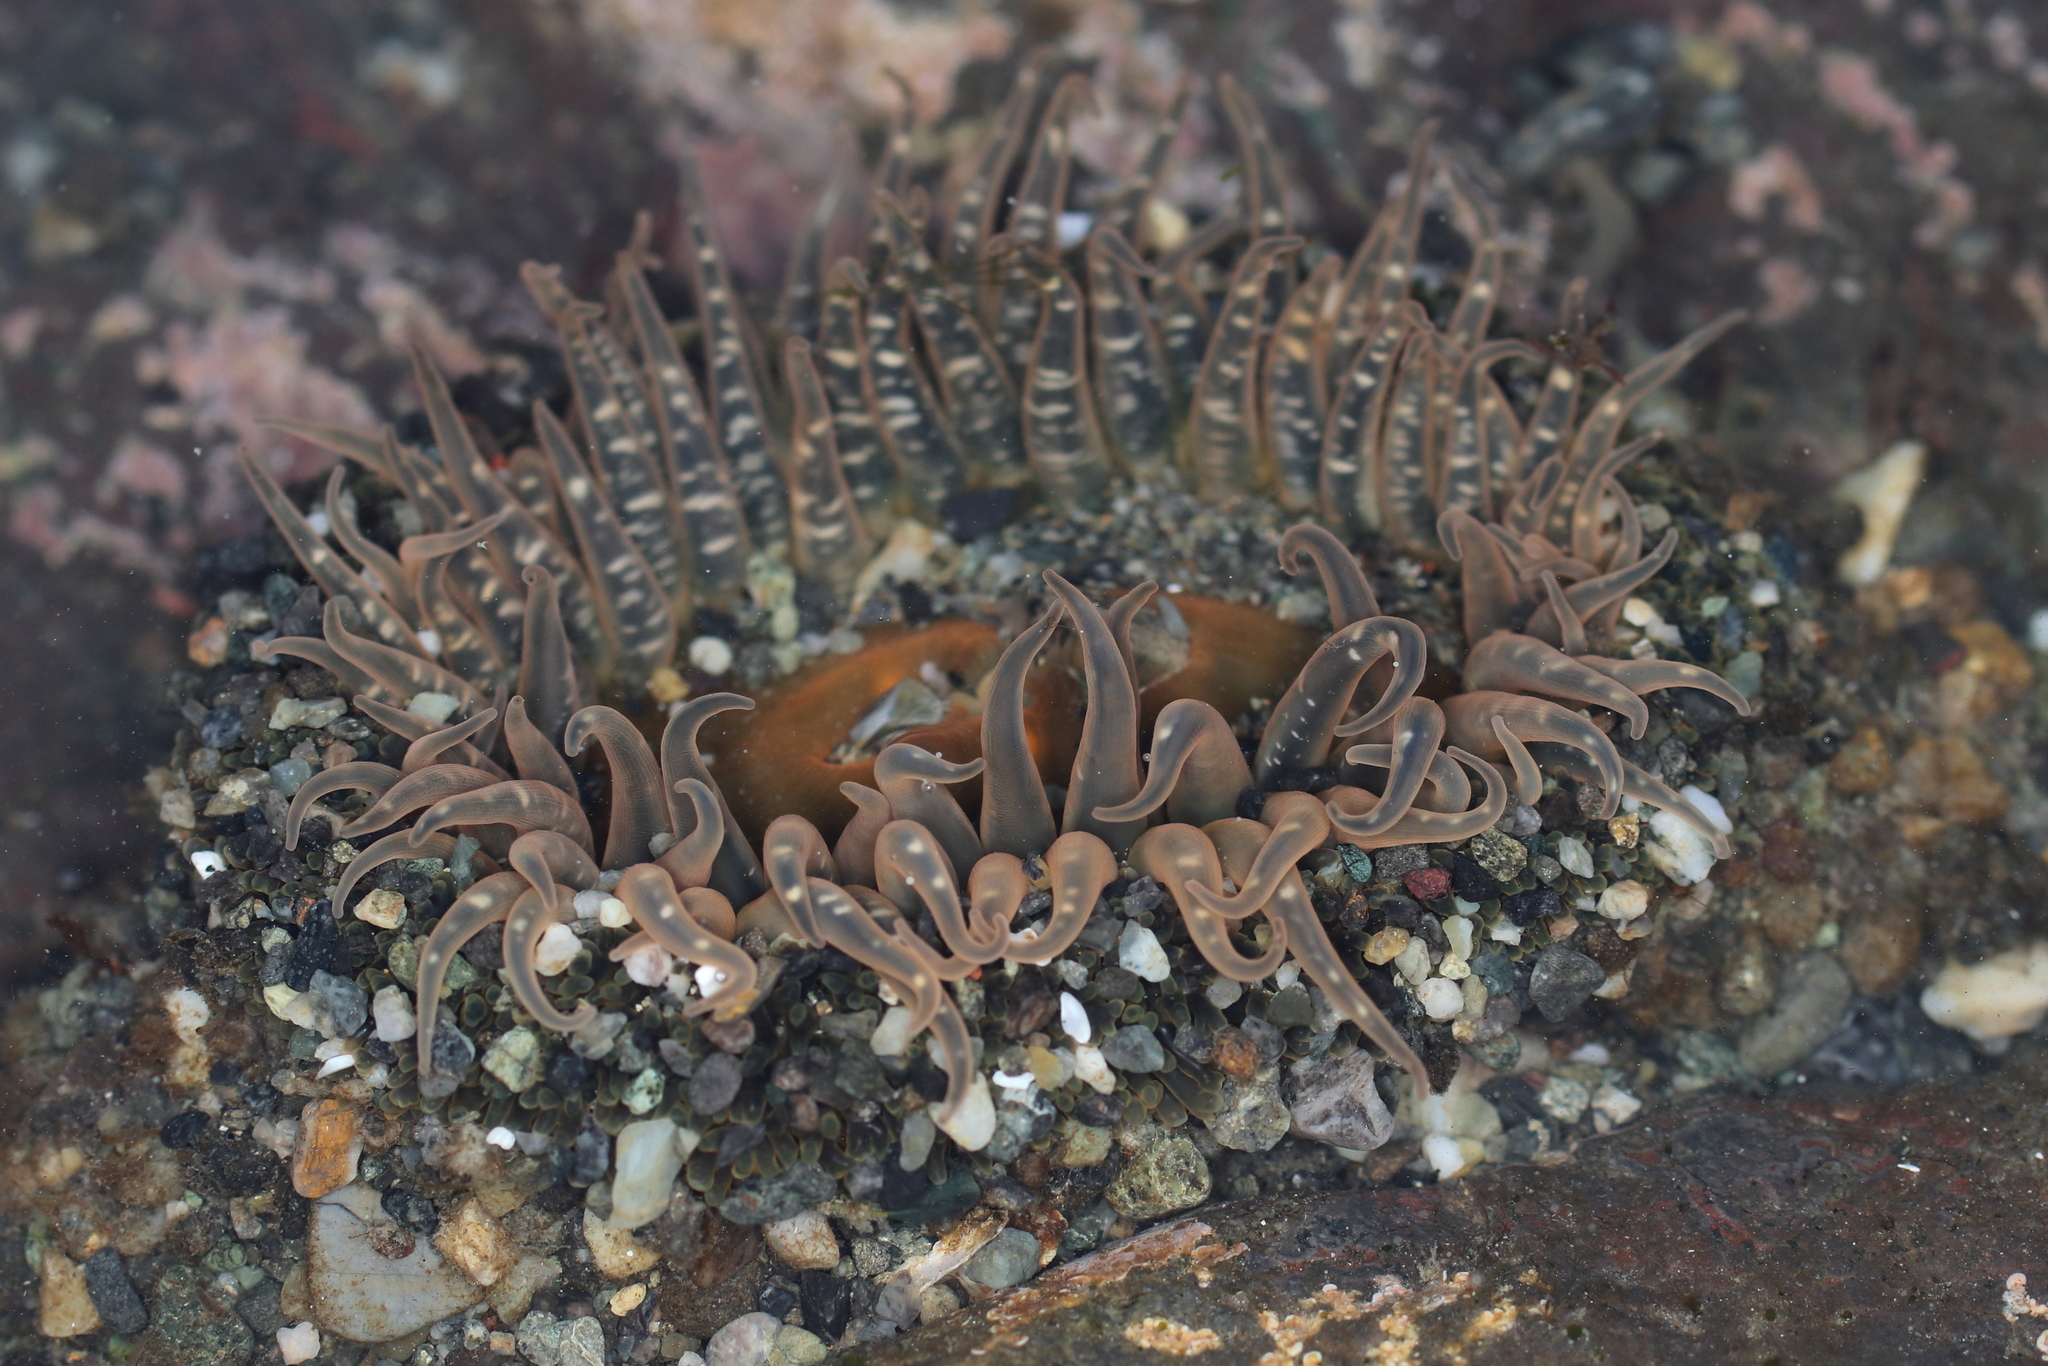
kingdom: Animalia
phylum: Cnidaria
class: Anthozoa
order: Actiniaria
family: Actiniidae
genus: Anthopleura
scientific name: Anthopleura artemisia
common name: Buried sea anemone
